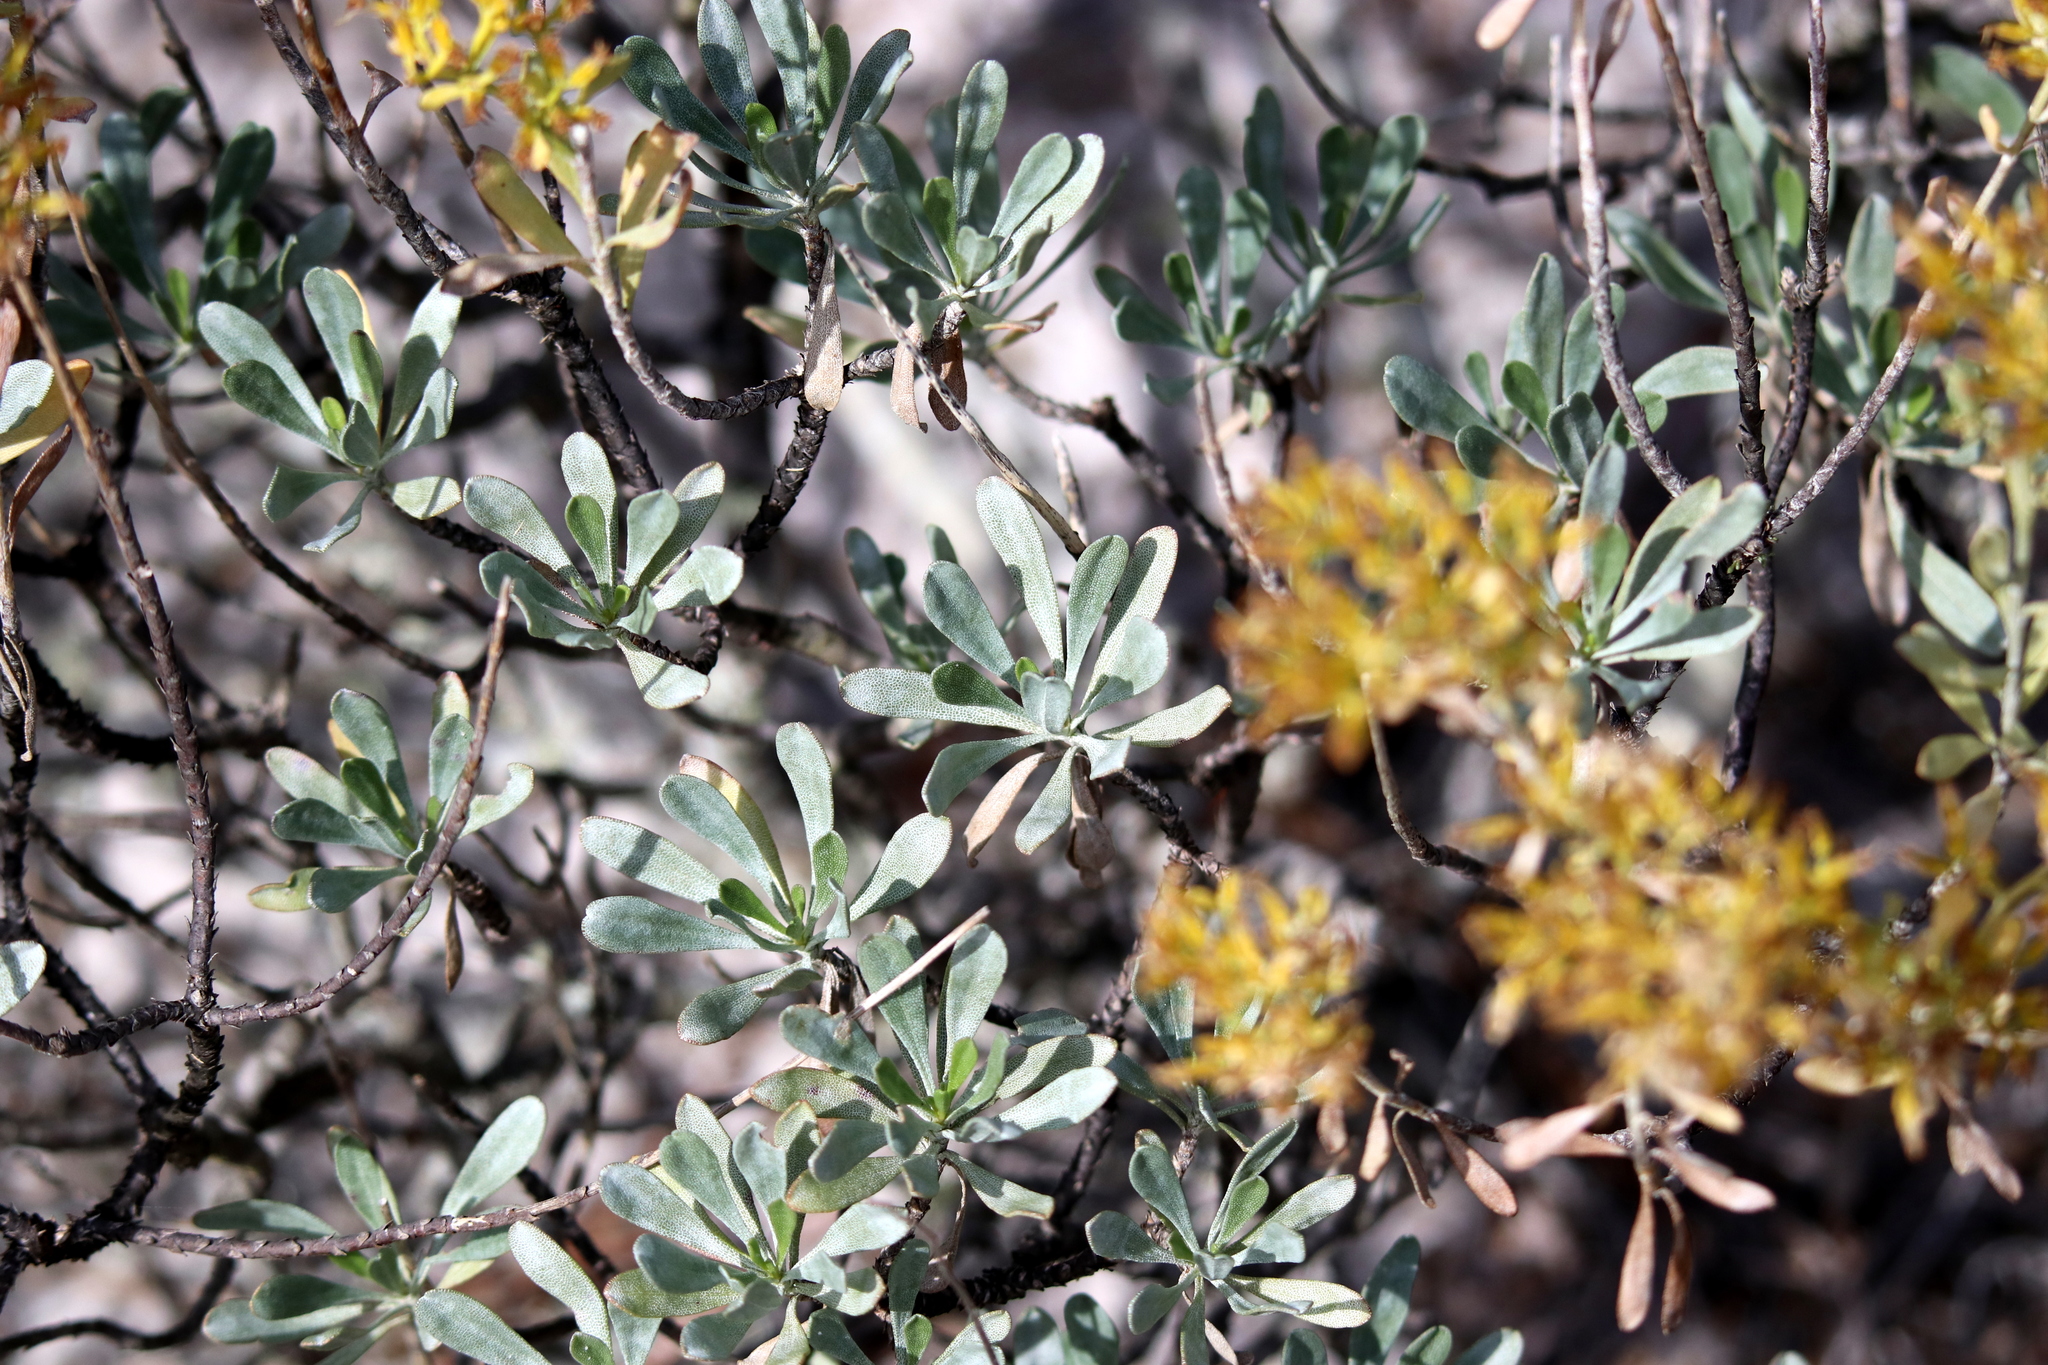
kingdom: Plantae
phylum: Tracheophyta
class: Magnoliopsida
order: Asterales
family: Asteraceae
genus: Chrysoma
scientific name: Chrysoma pauciflosculosa
